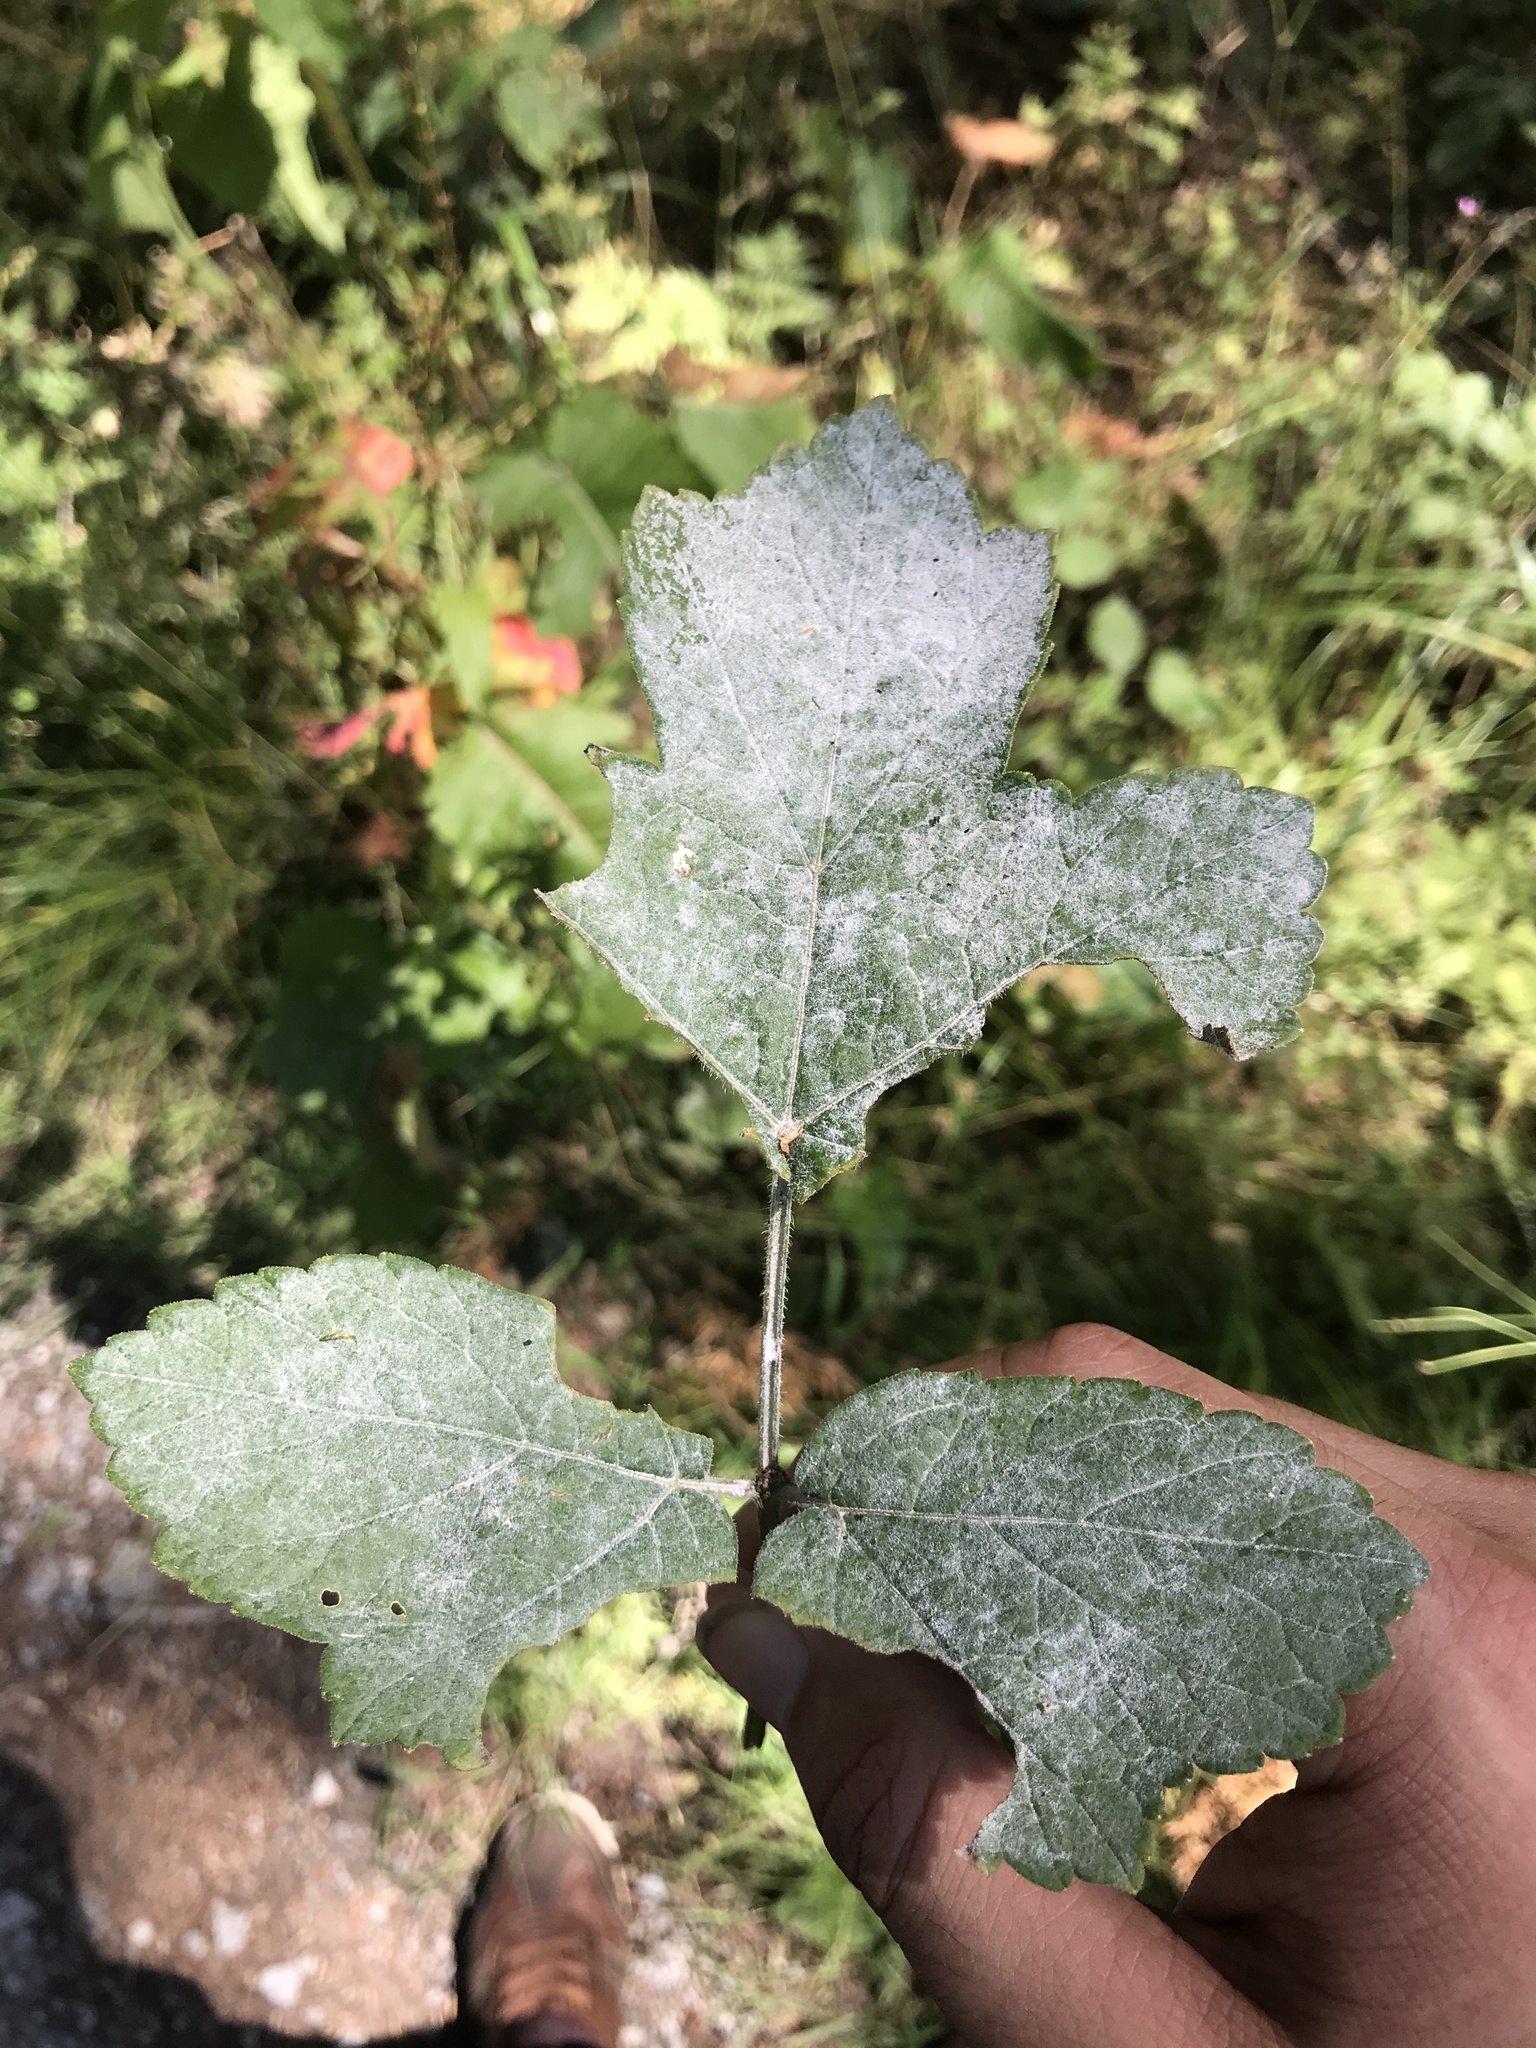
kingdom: Plantae
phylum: Tracheophyta
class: Magnoliopsida
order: Apiales
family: Apiaceae
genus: Heracleum
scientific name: Heracleum sphondylium
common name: Hogweed
